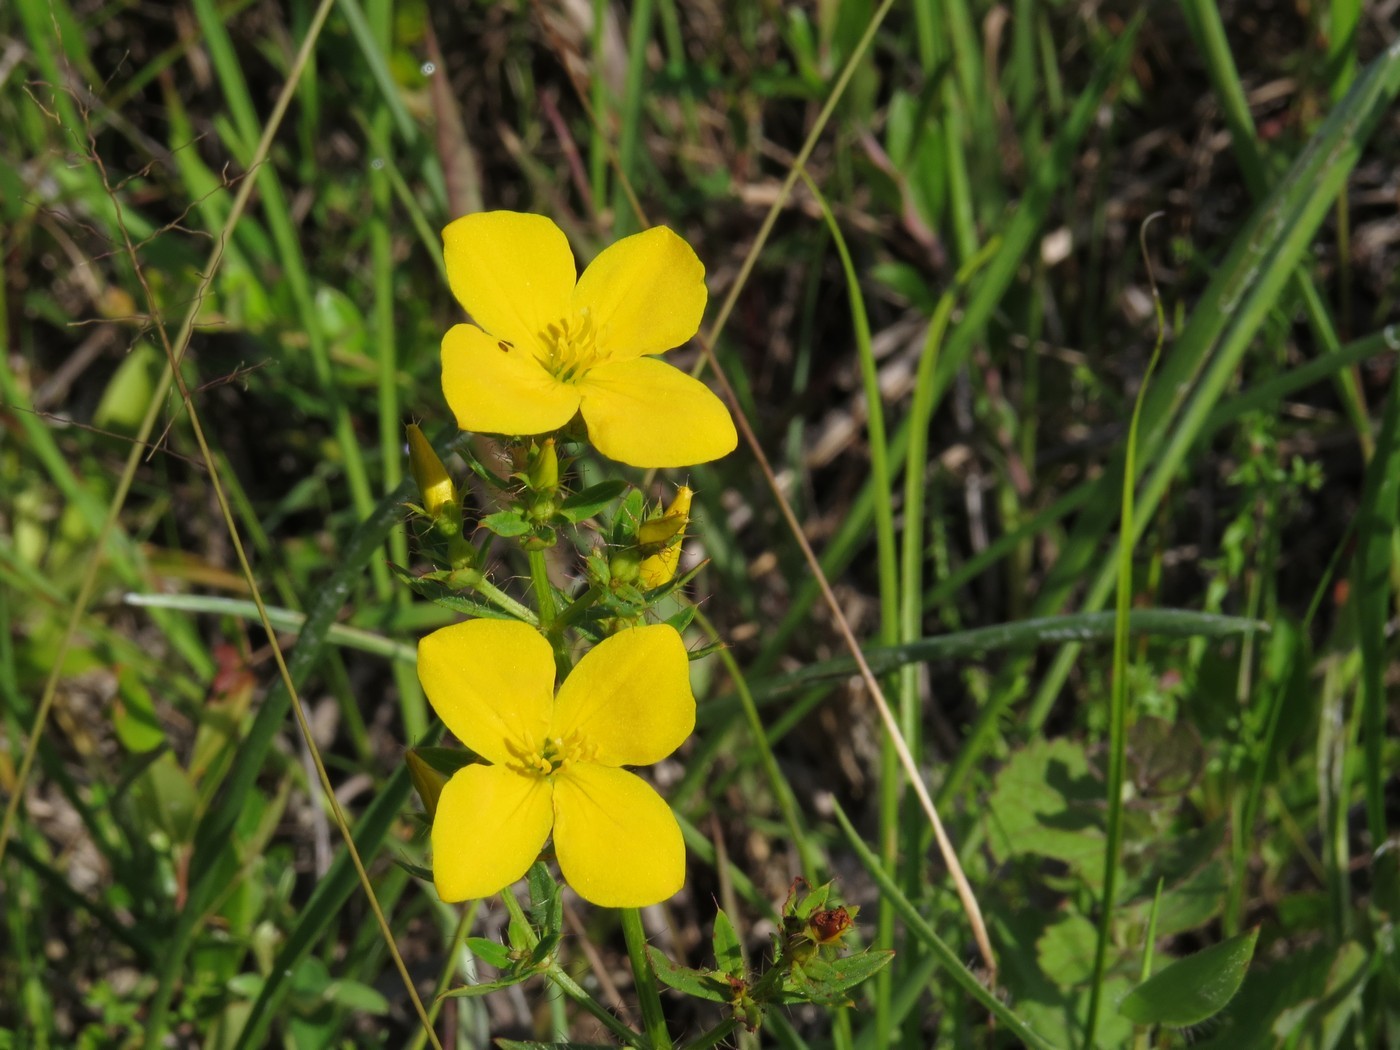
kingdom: Plantae
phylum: Tracheophyta
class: Magnoliopsida
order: Myrtales
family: Melastomataceae
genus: Rhexia
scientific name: Rhexia lutea
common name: Golden meadow-beauty
